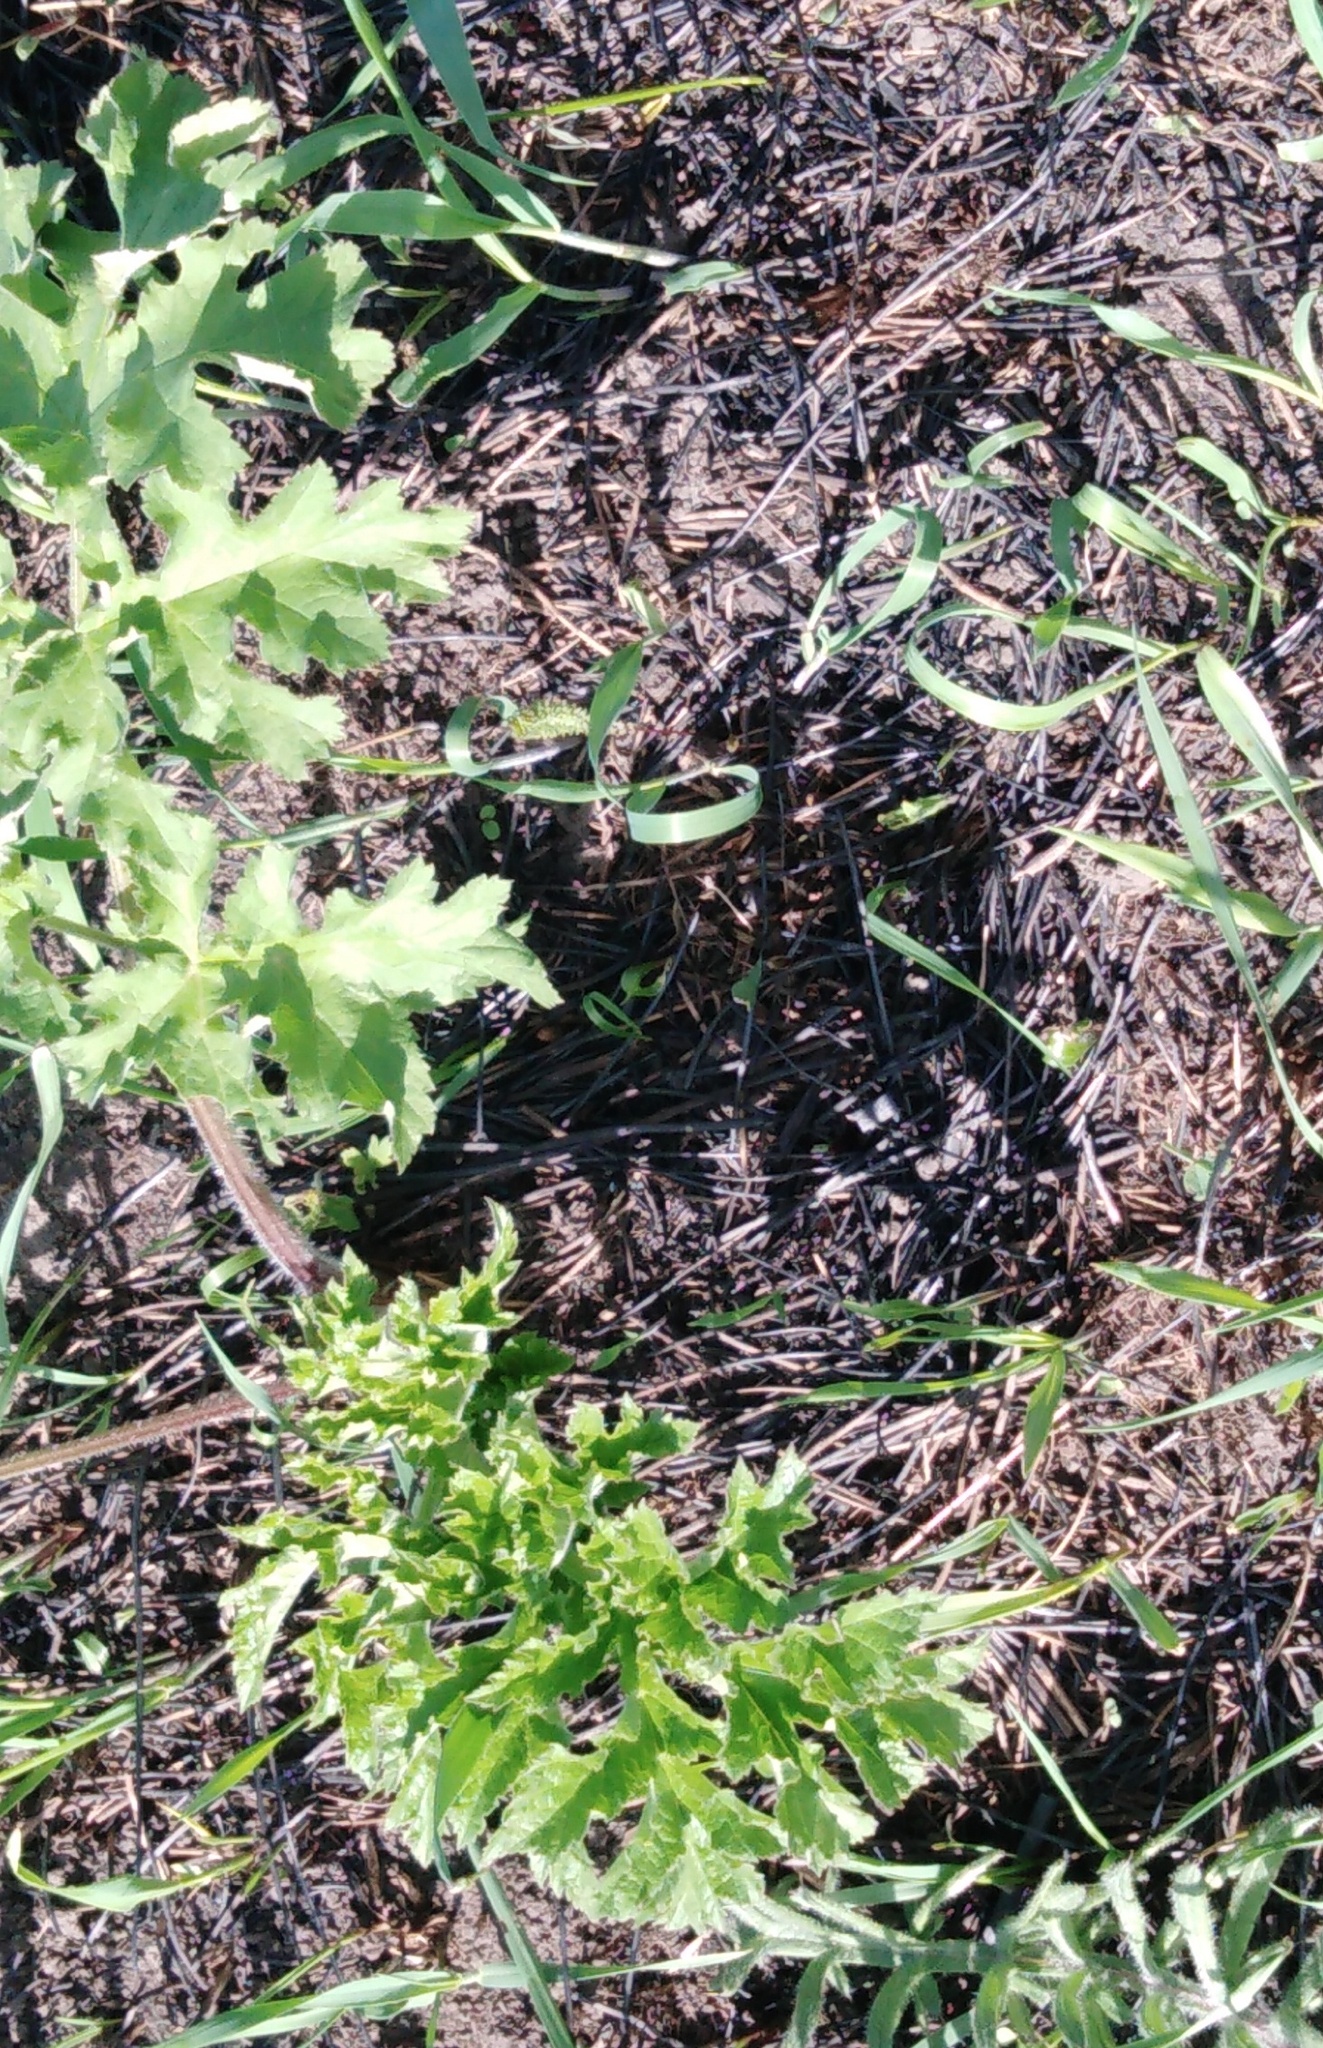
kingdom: Plantae
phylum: Tracheophyta
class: Magnoliopsida
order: Apiales
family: Apiaceae
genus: Heracleum
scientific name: Heracleum sphondylium
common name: Hogweed
